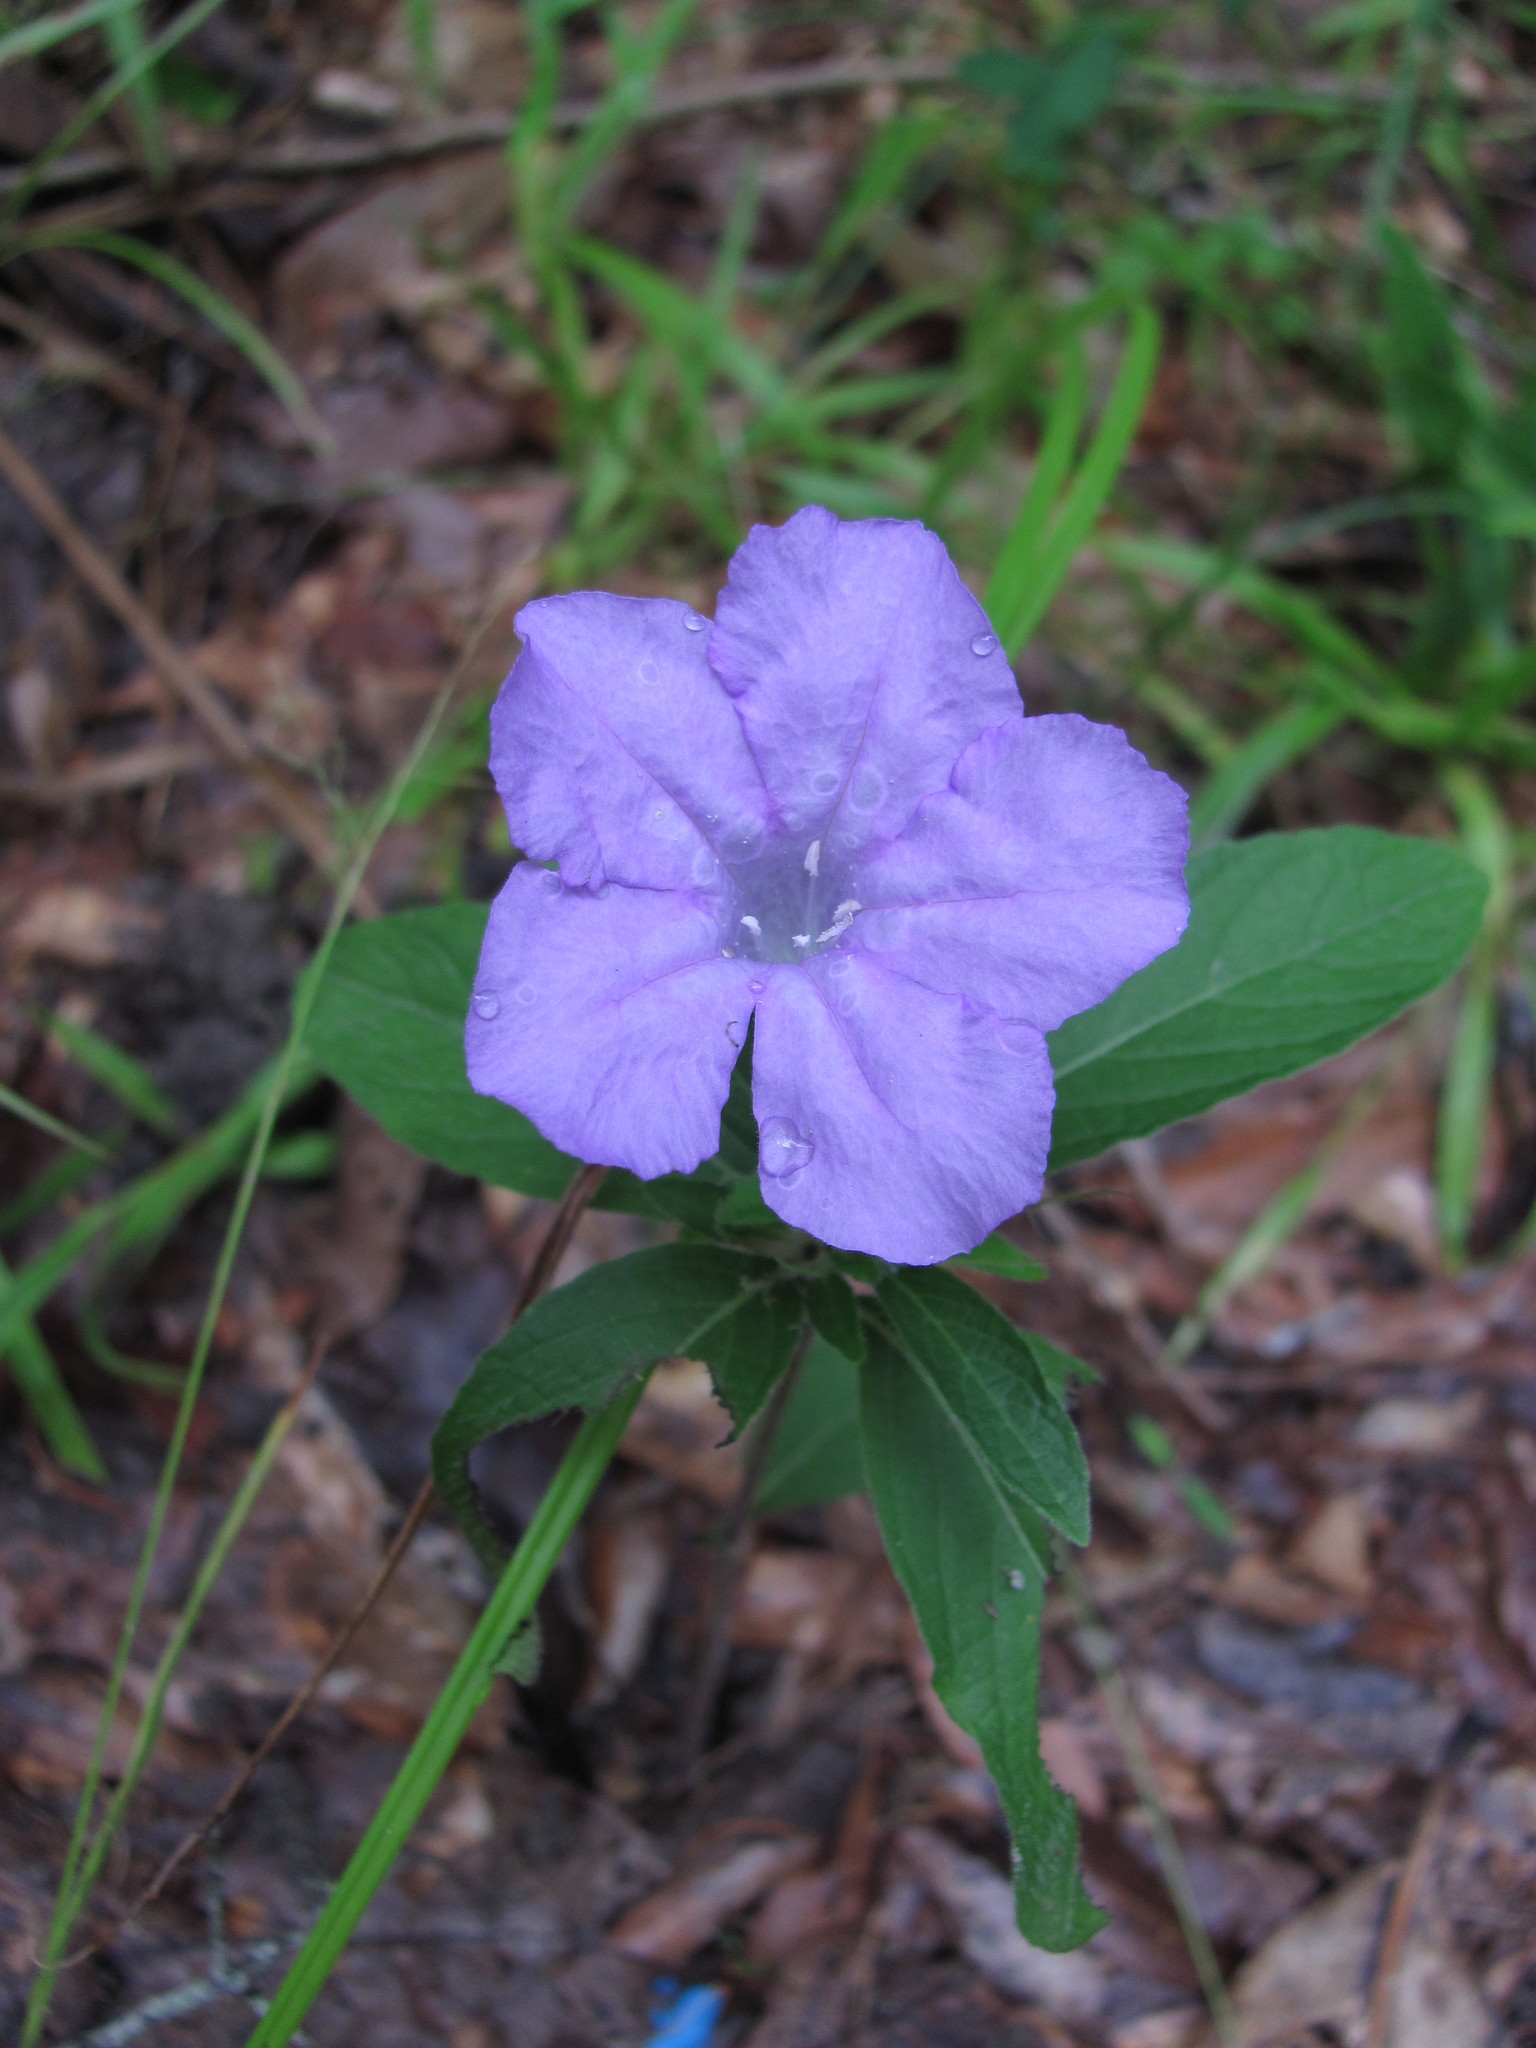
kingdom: Plantae
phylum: Tracheophyta
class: Magnoliopsida
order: Lamiales
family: Acanthaceae
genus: Ruellia
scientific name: Ruellia caroliniensis
